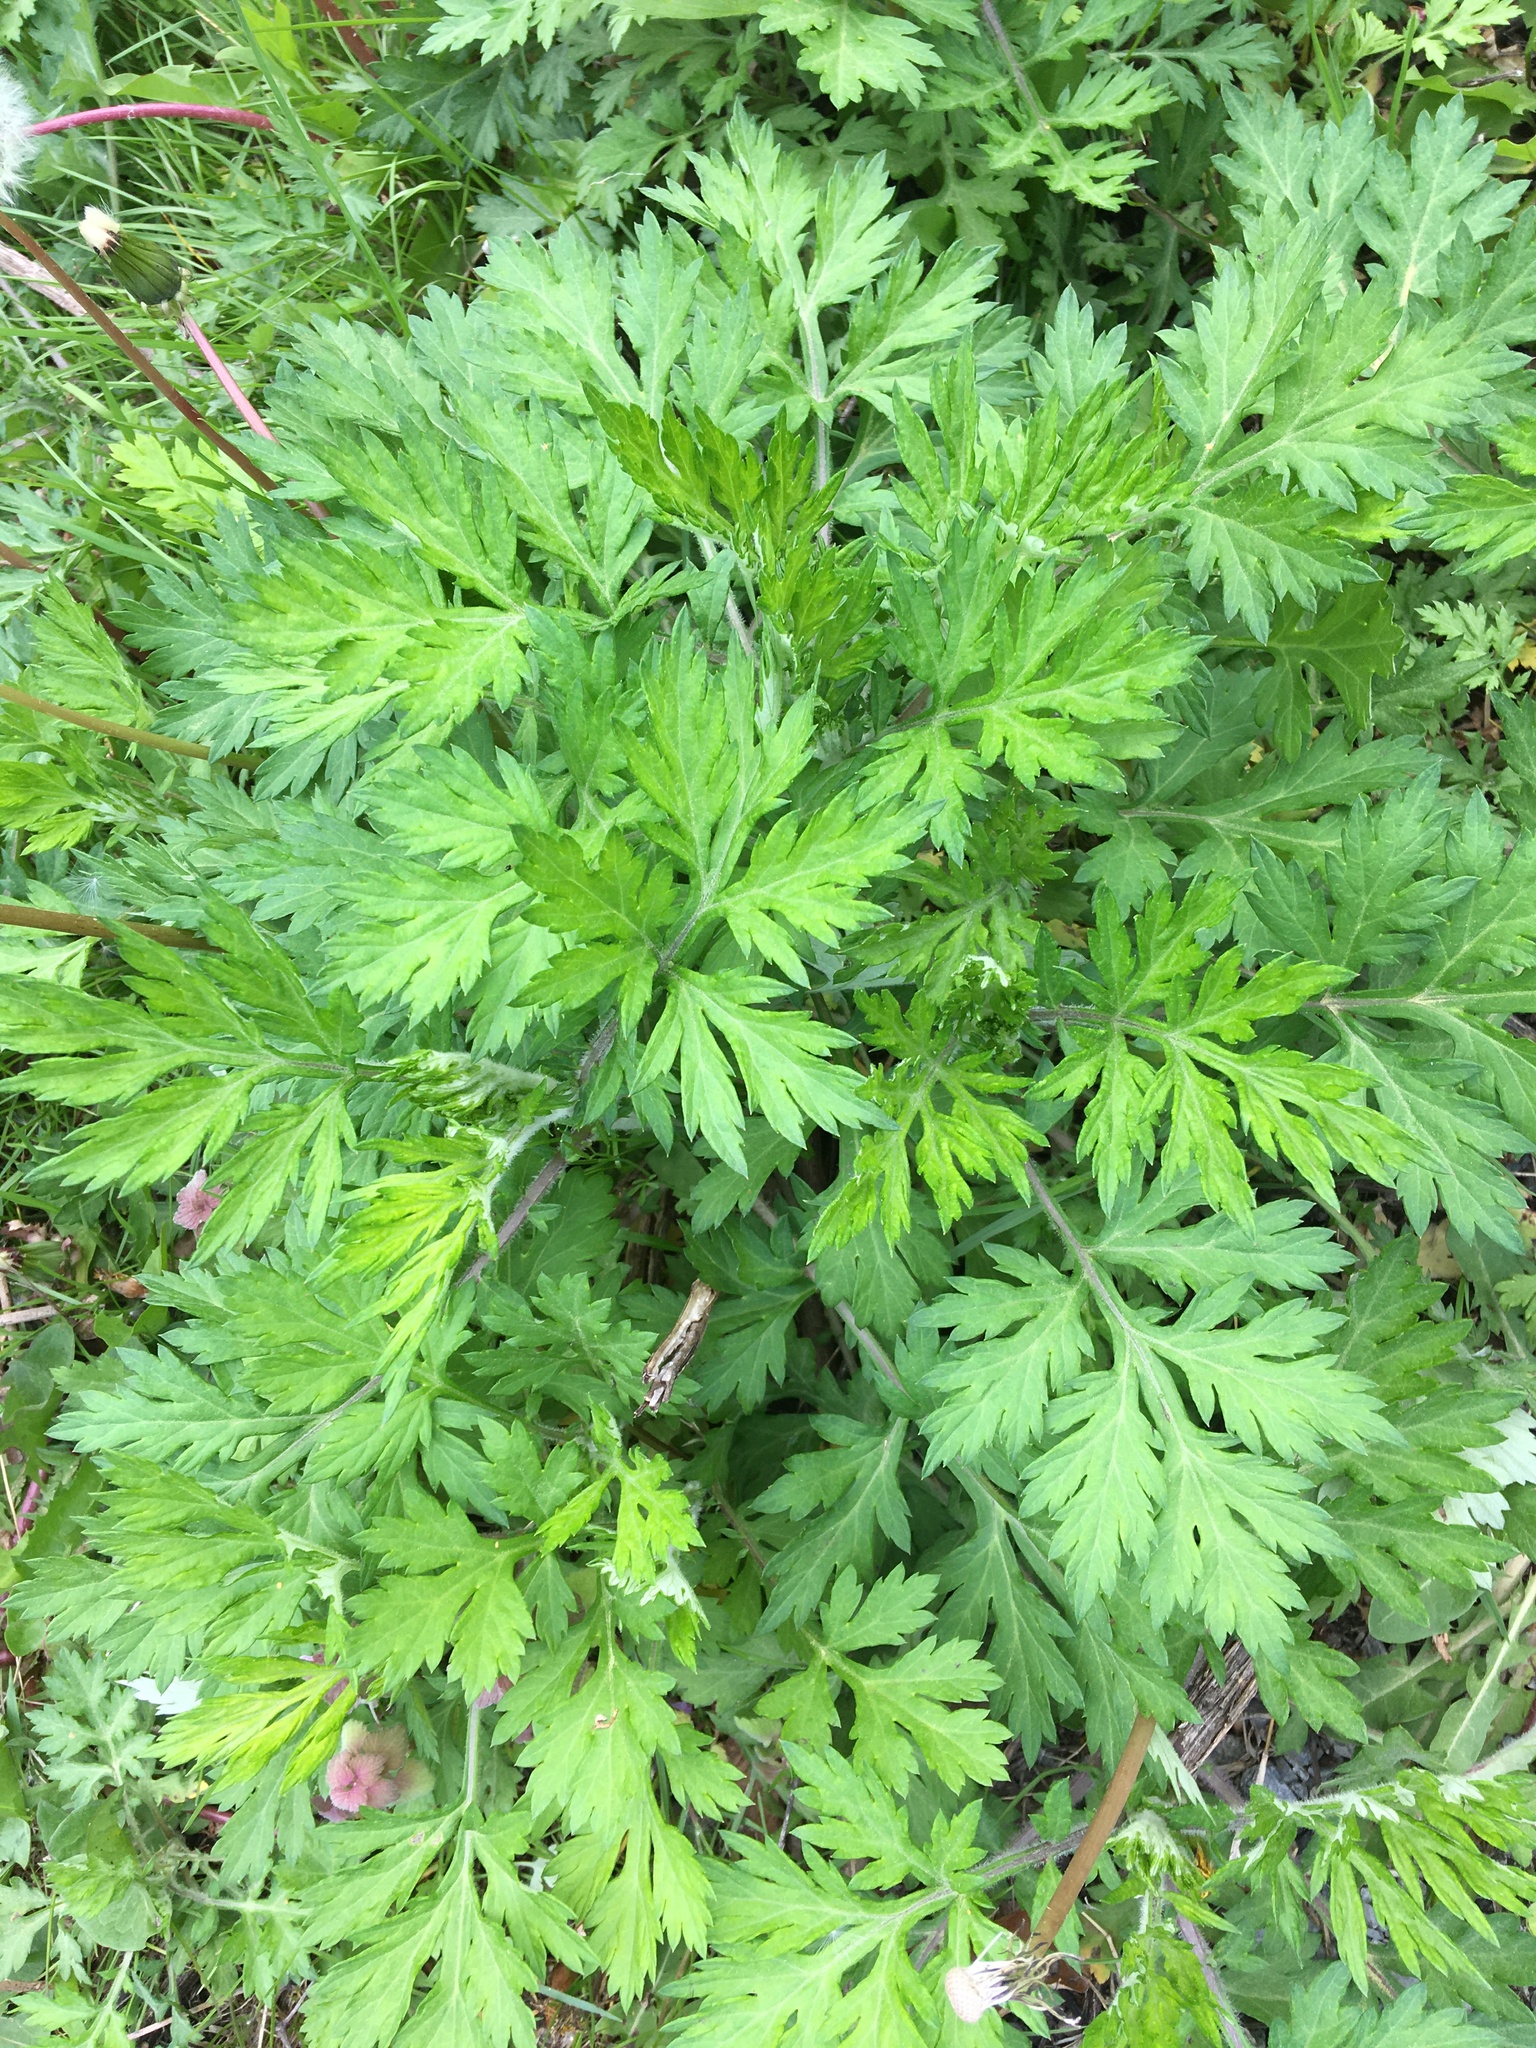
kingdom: Plantae
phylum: Tracheophyta
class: Magnoliopsida
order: Asterales
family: Asteraceae
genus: Artemisia
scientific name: Artemisia vulgaris
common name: Mugwort
